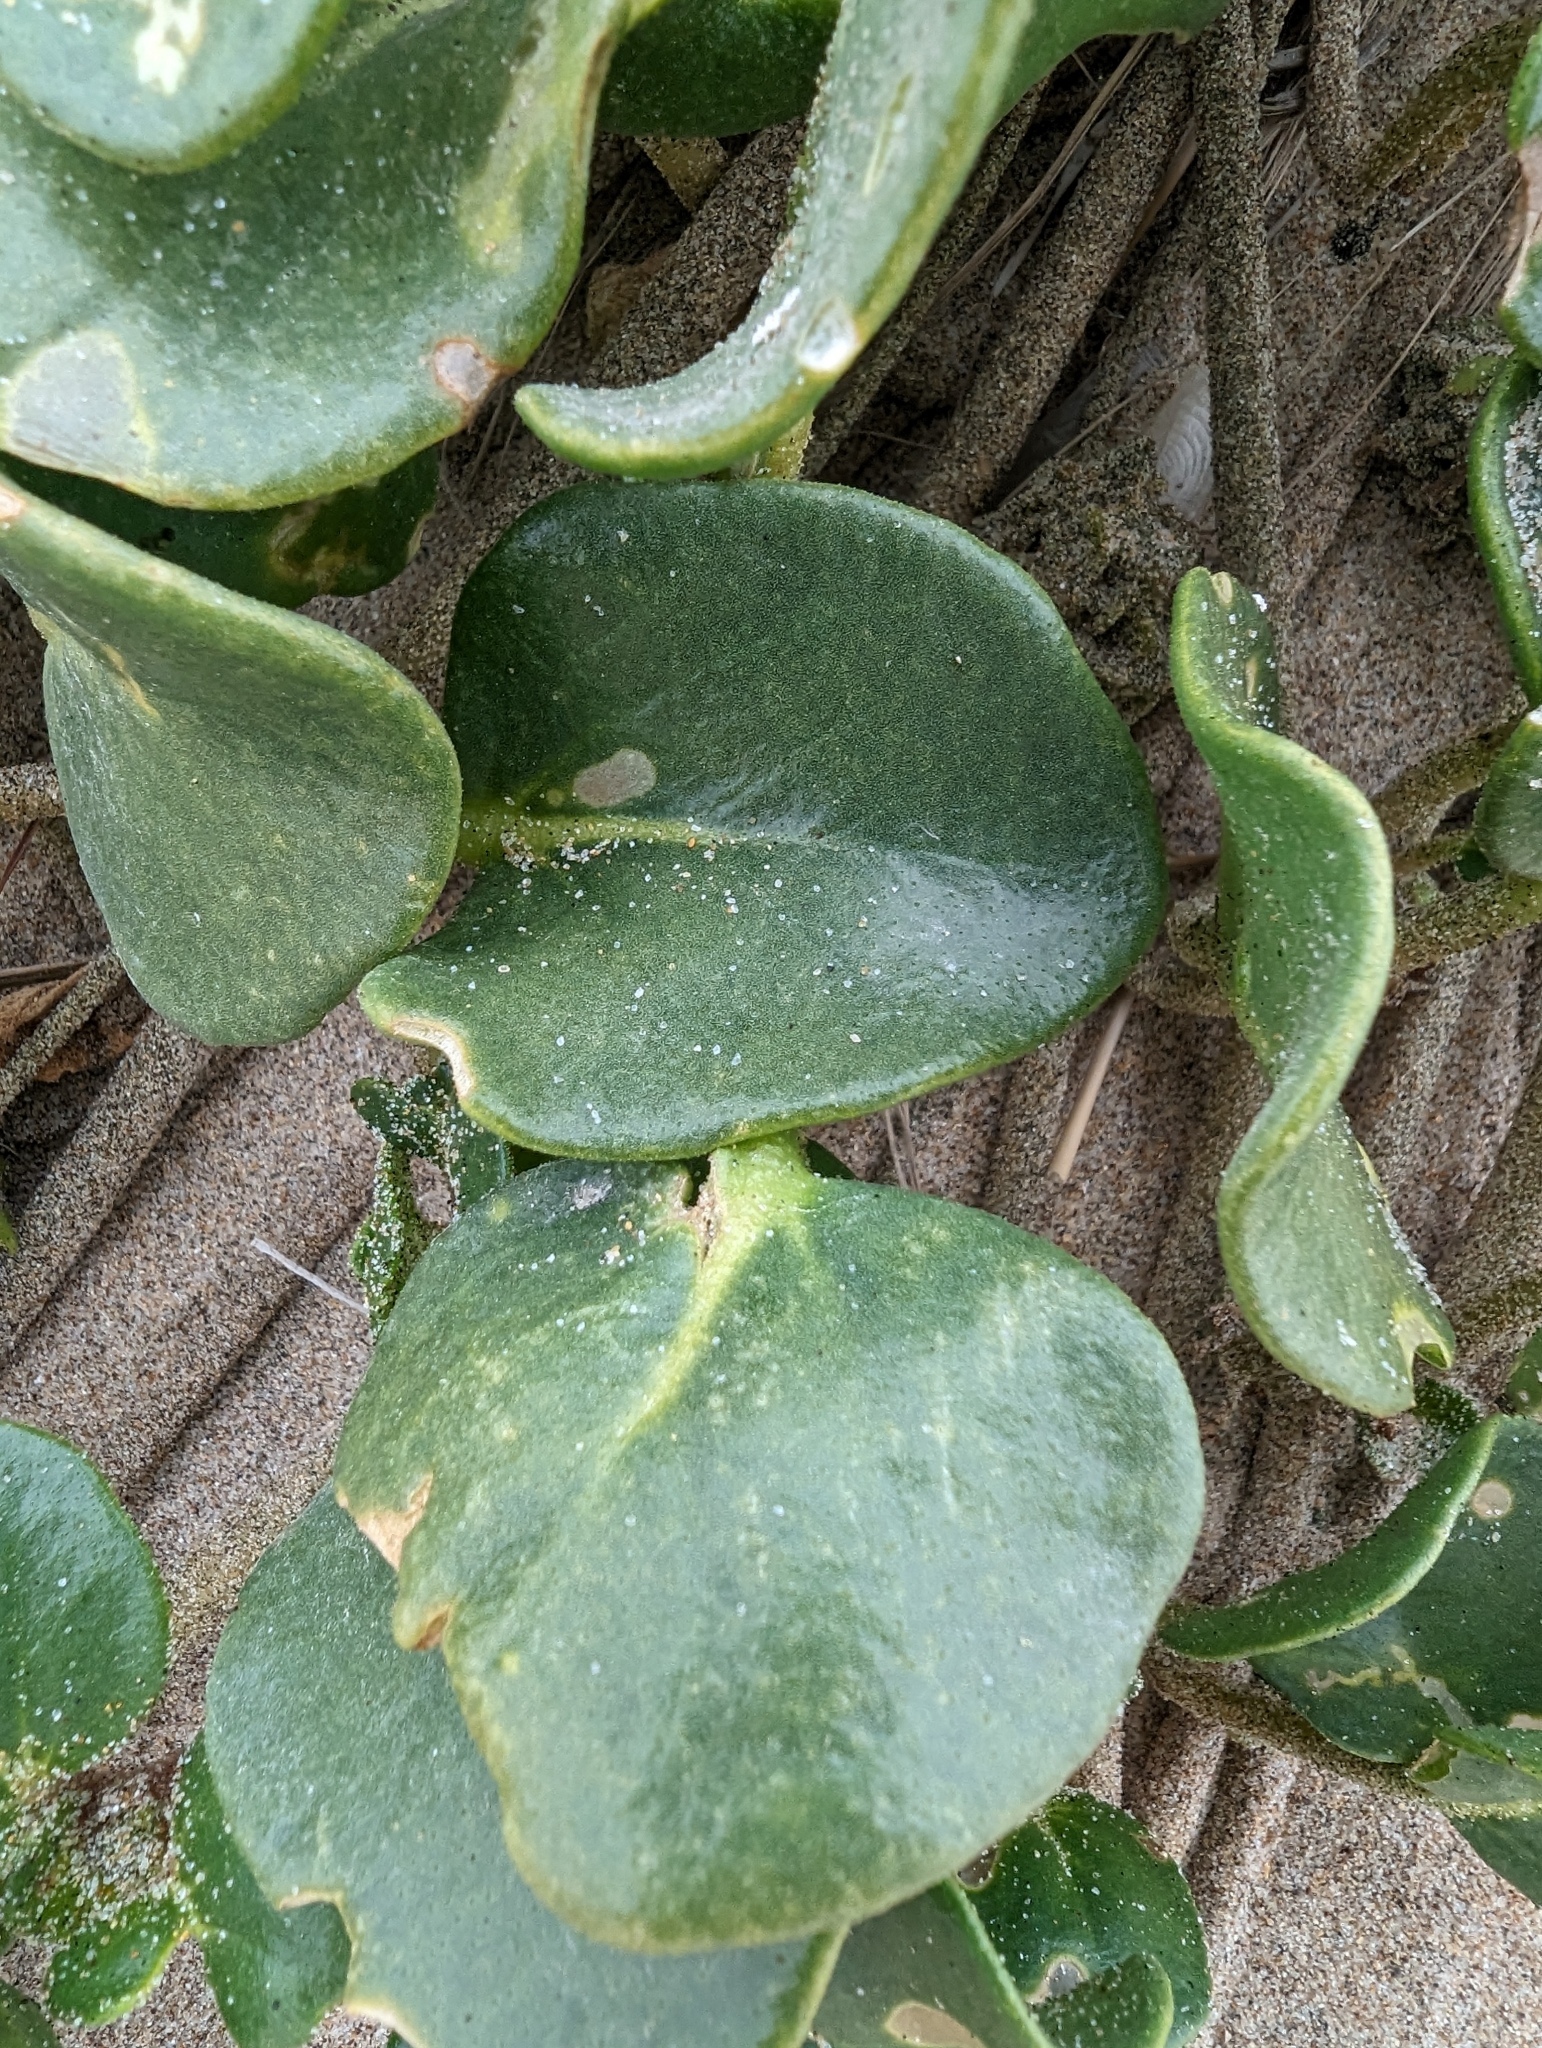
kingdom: Plantae
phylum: Tracheophyta
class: Magnoliopsida
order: Caryophyllales
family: Nyctaginaceae
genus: Abronia
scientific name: Abronia latifolia
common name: Yellow sand-verbena
